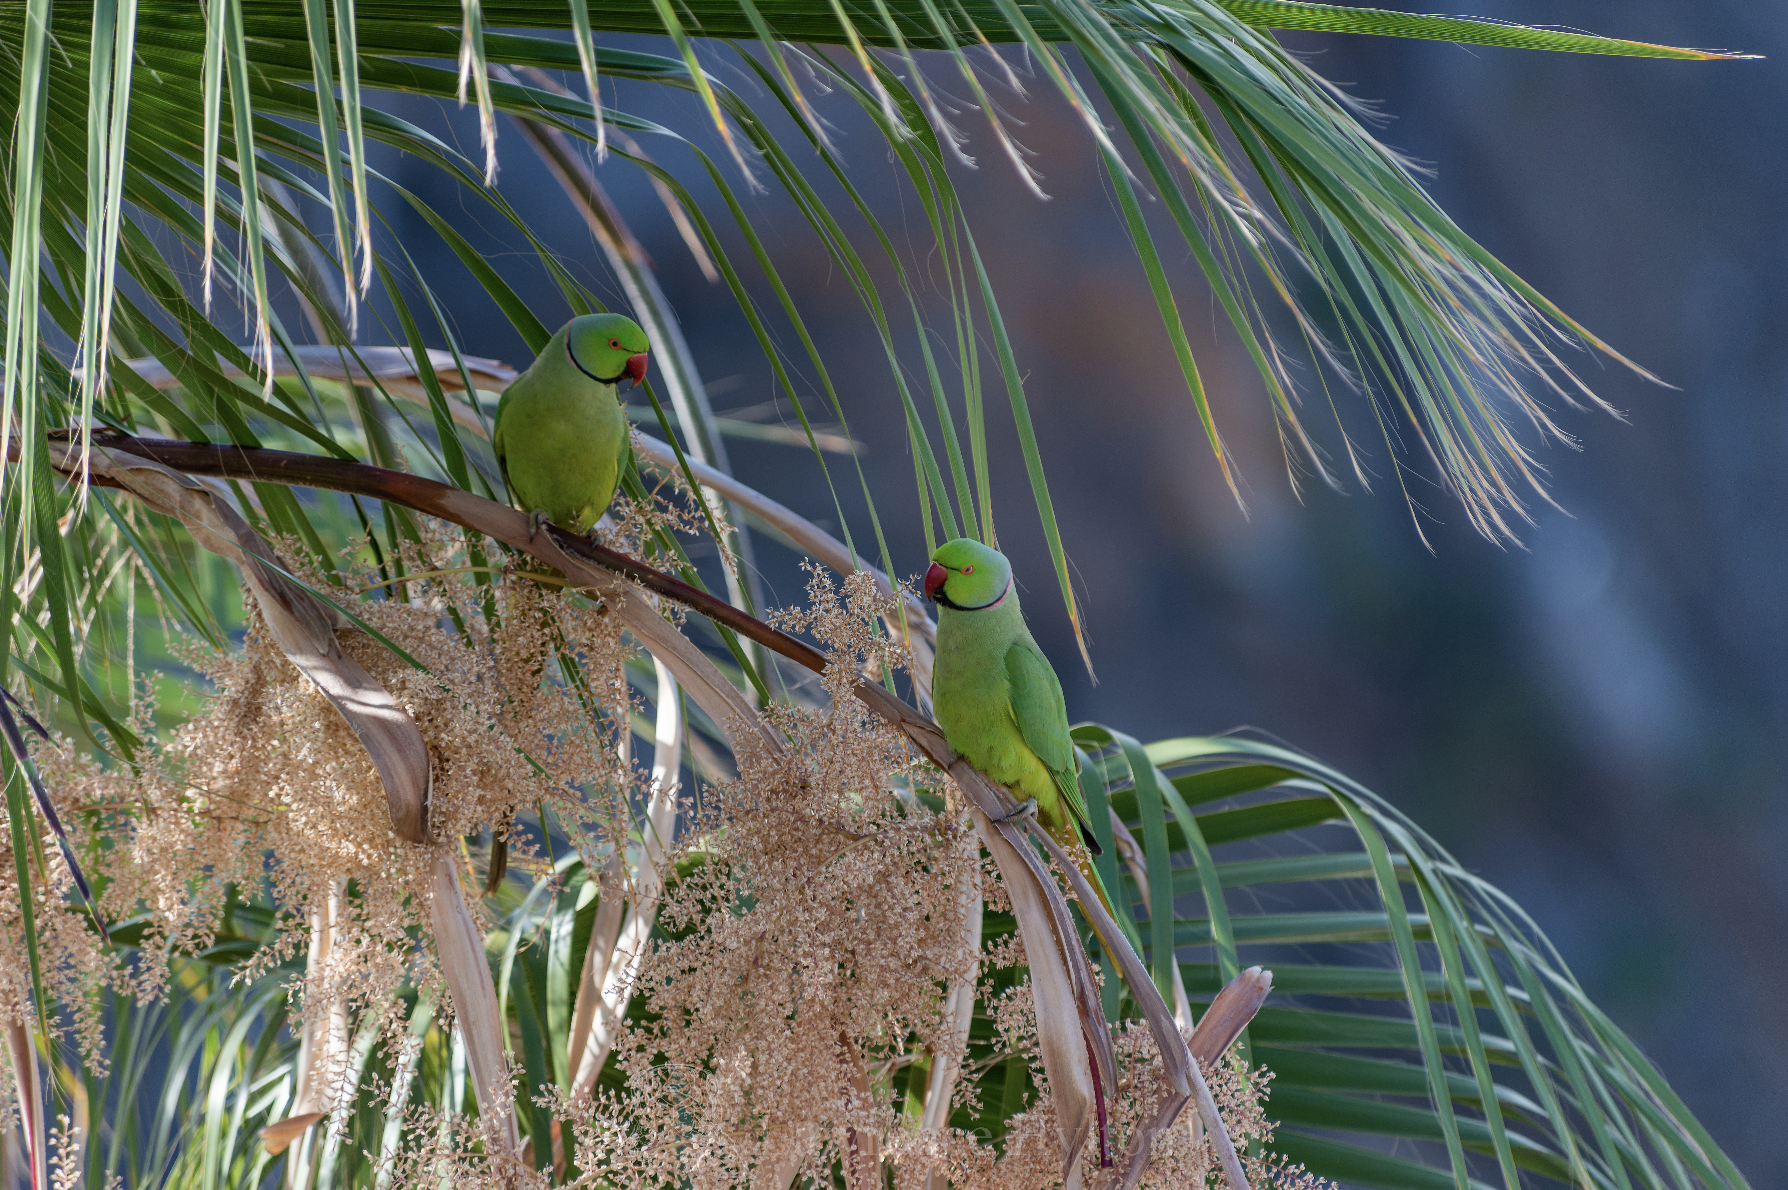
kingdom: Animalia
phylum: Chordata
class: Aves
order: Psittaciformes
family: Psittacidae
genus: Psittacula
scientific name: Psittacula krameri
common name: Rose-ringed parakeet
